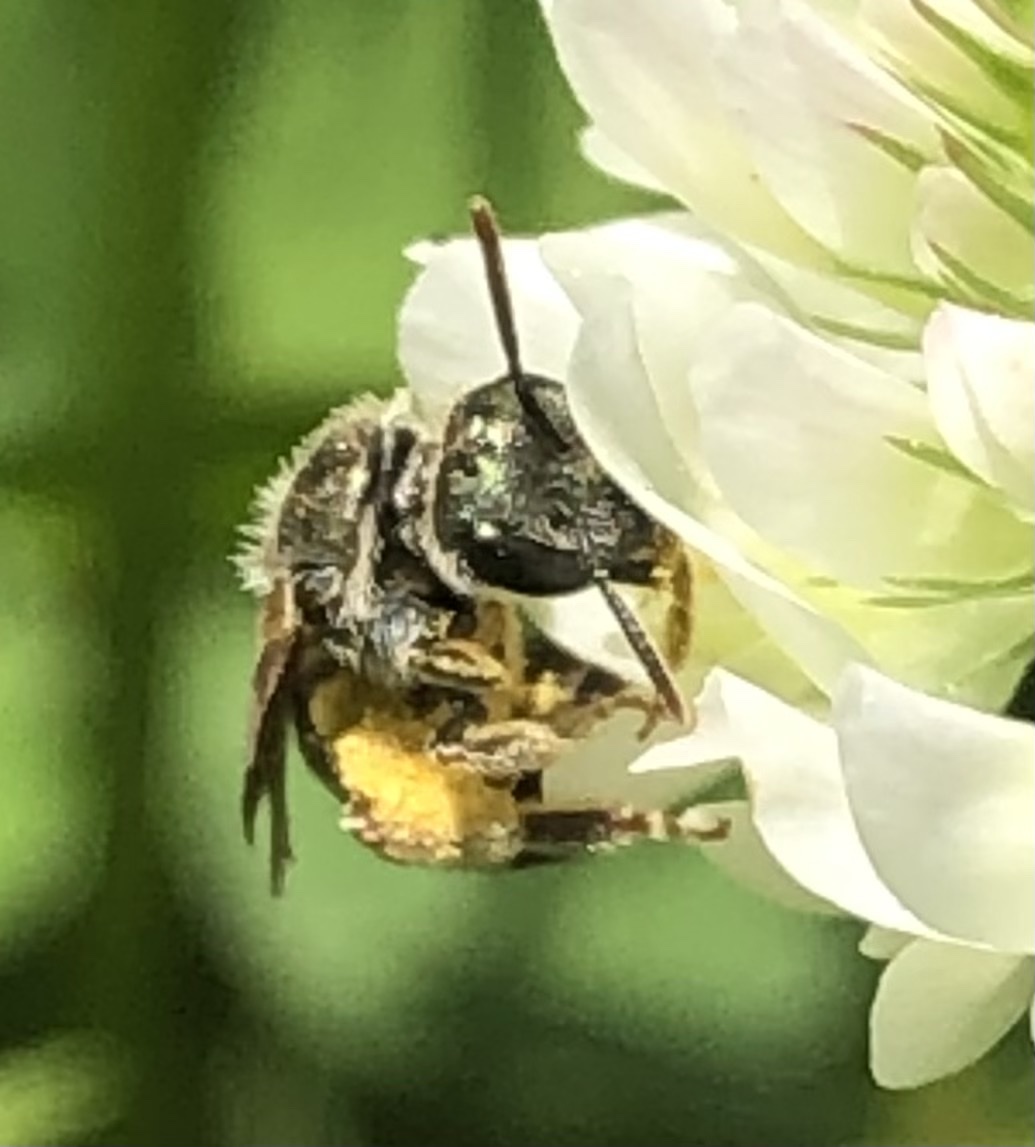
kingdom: Animalia
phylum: Arthropoda
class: Insecta
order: Hymenoptera
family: Halictidae
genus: Halictus
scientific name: Halictus confusus
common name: Southern bronze furrow bee
